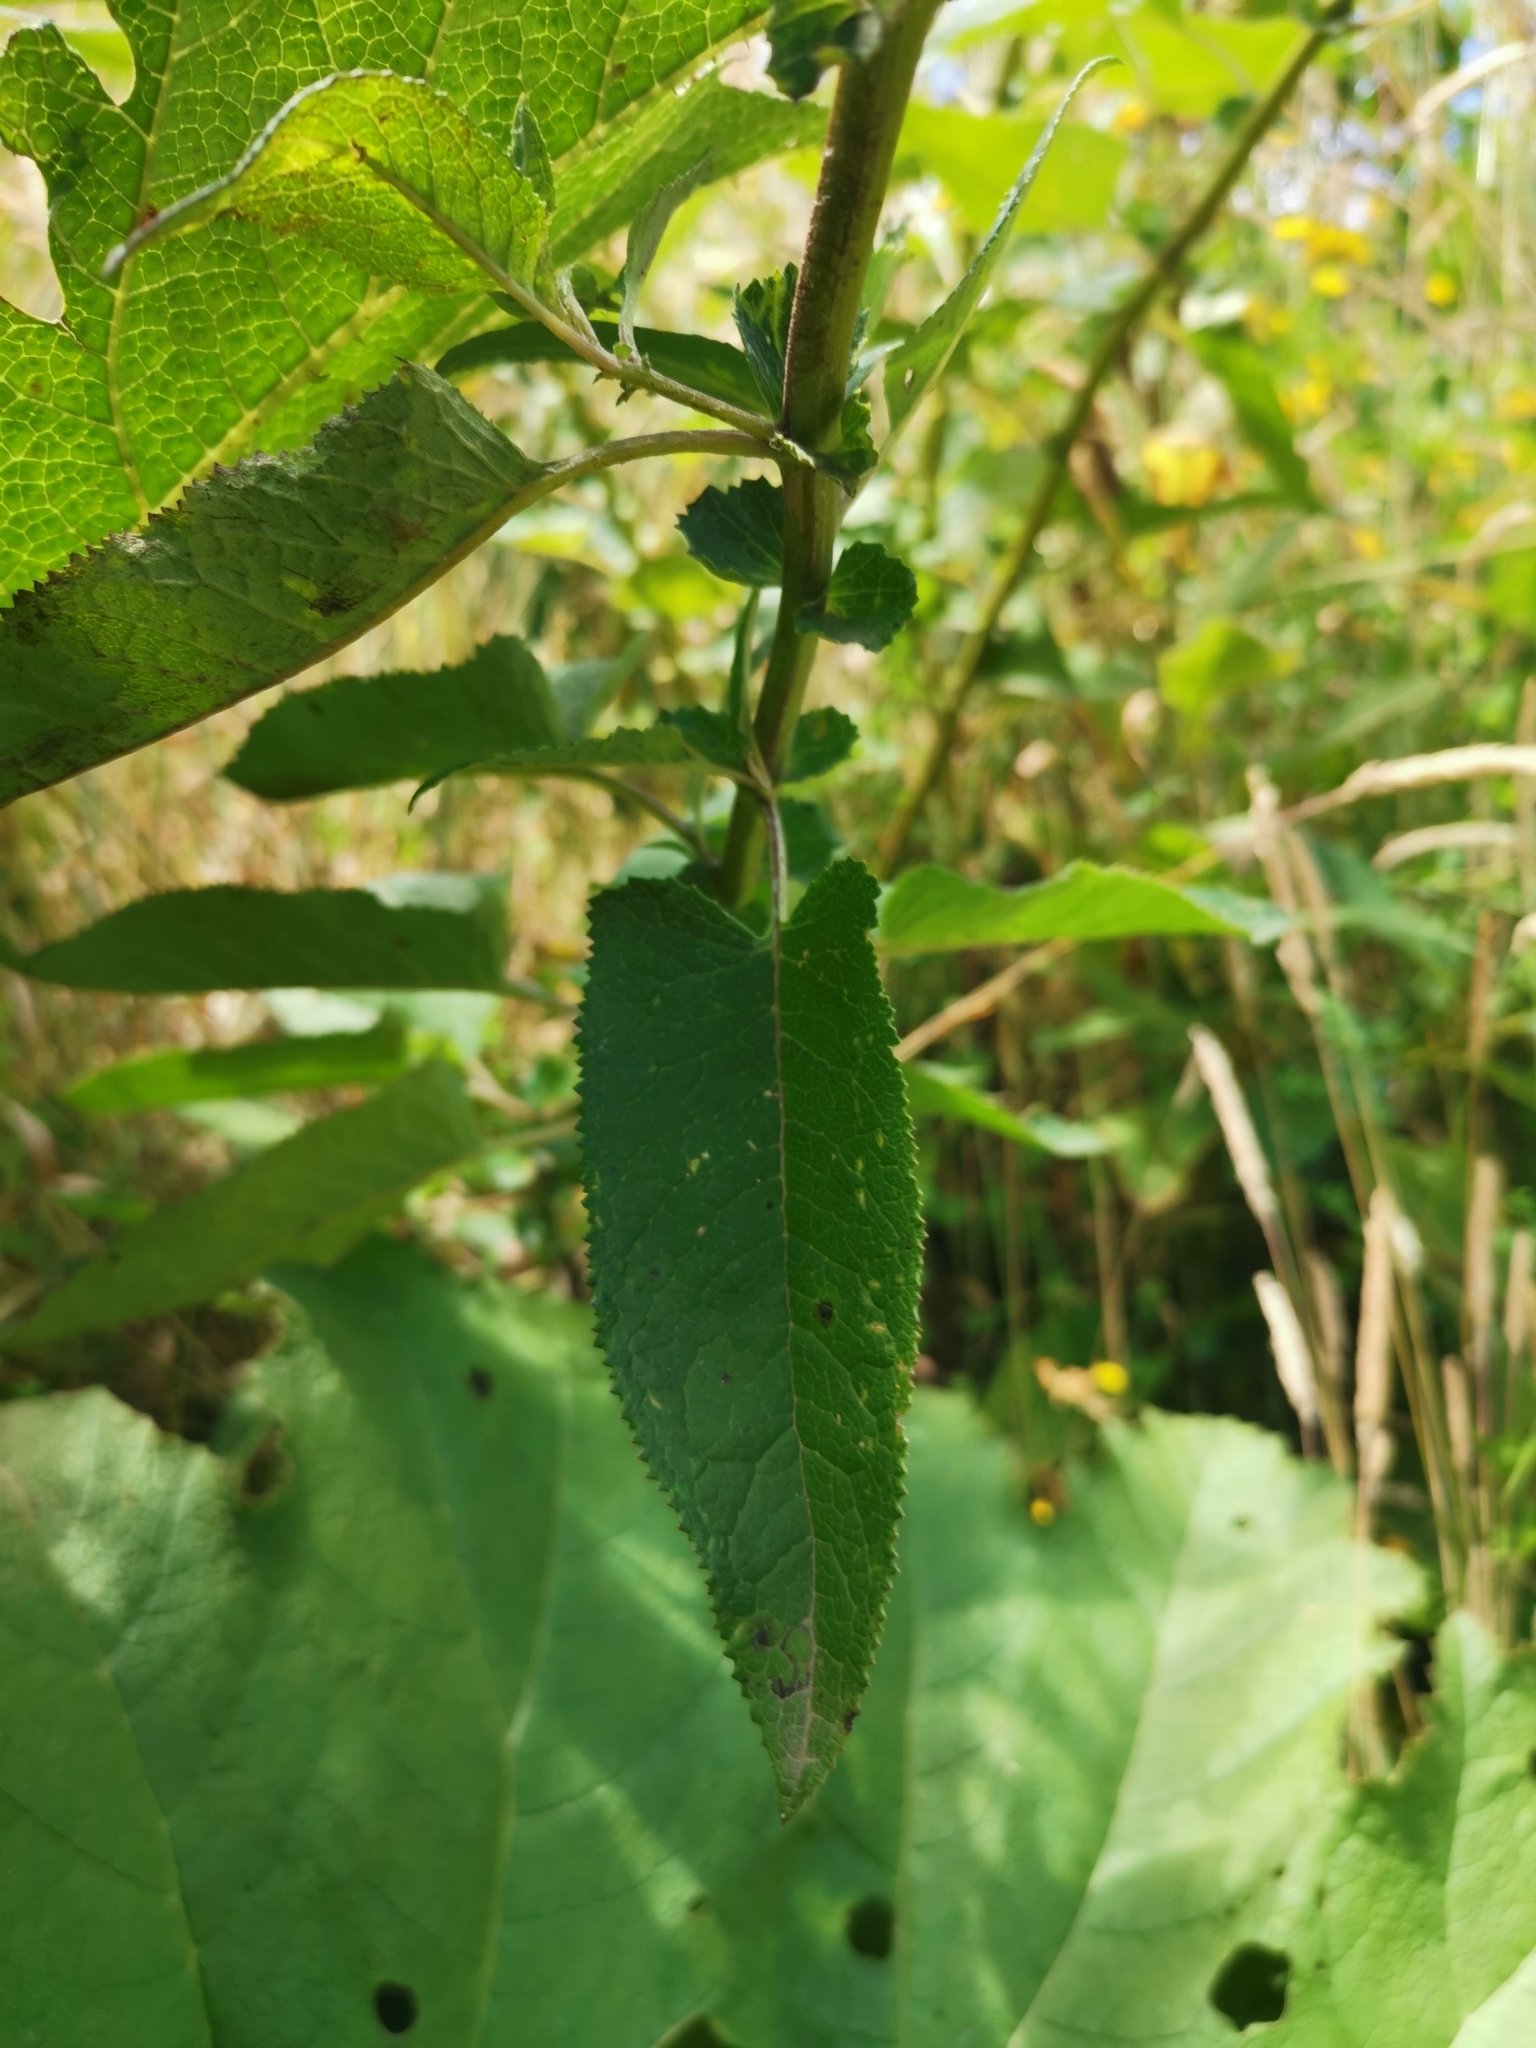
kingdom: Plantae
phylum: Tracheophyta
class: Magnoliopsida
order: Asterales
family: Asteraceae
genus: Senecio
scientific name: Senecio otites
